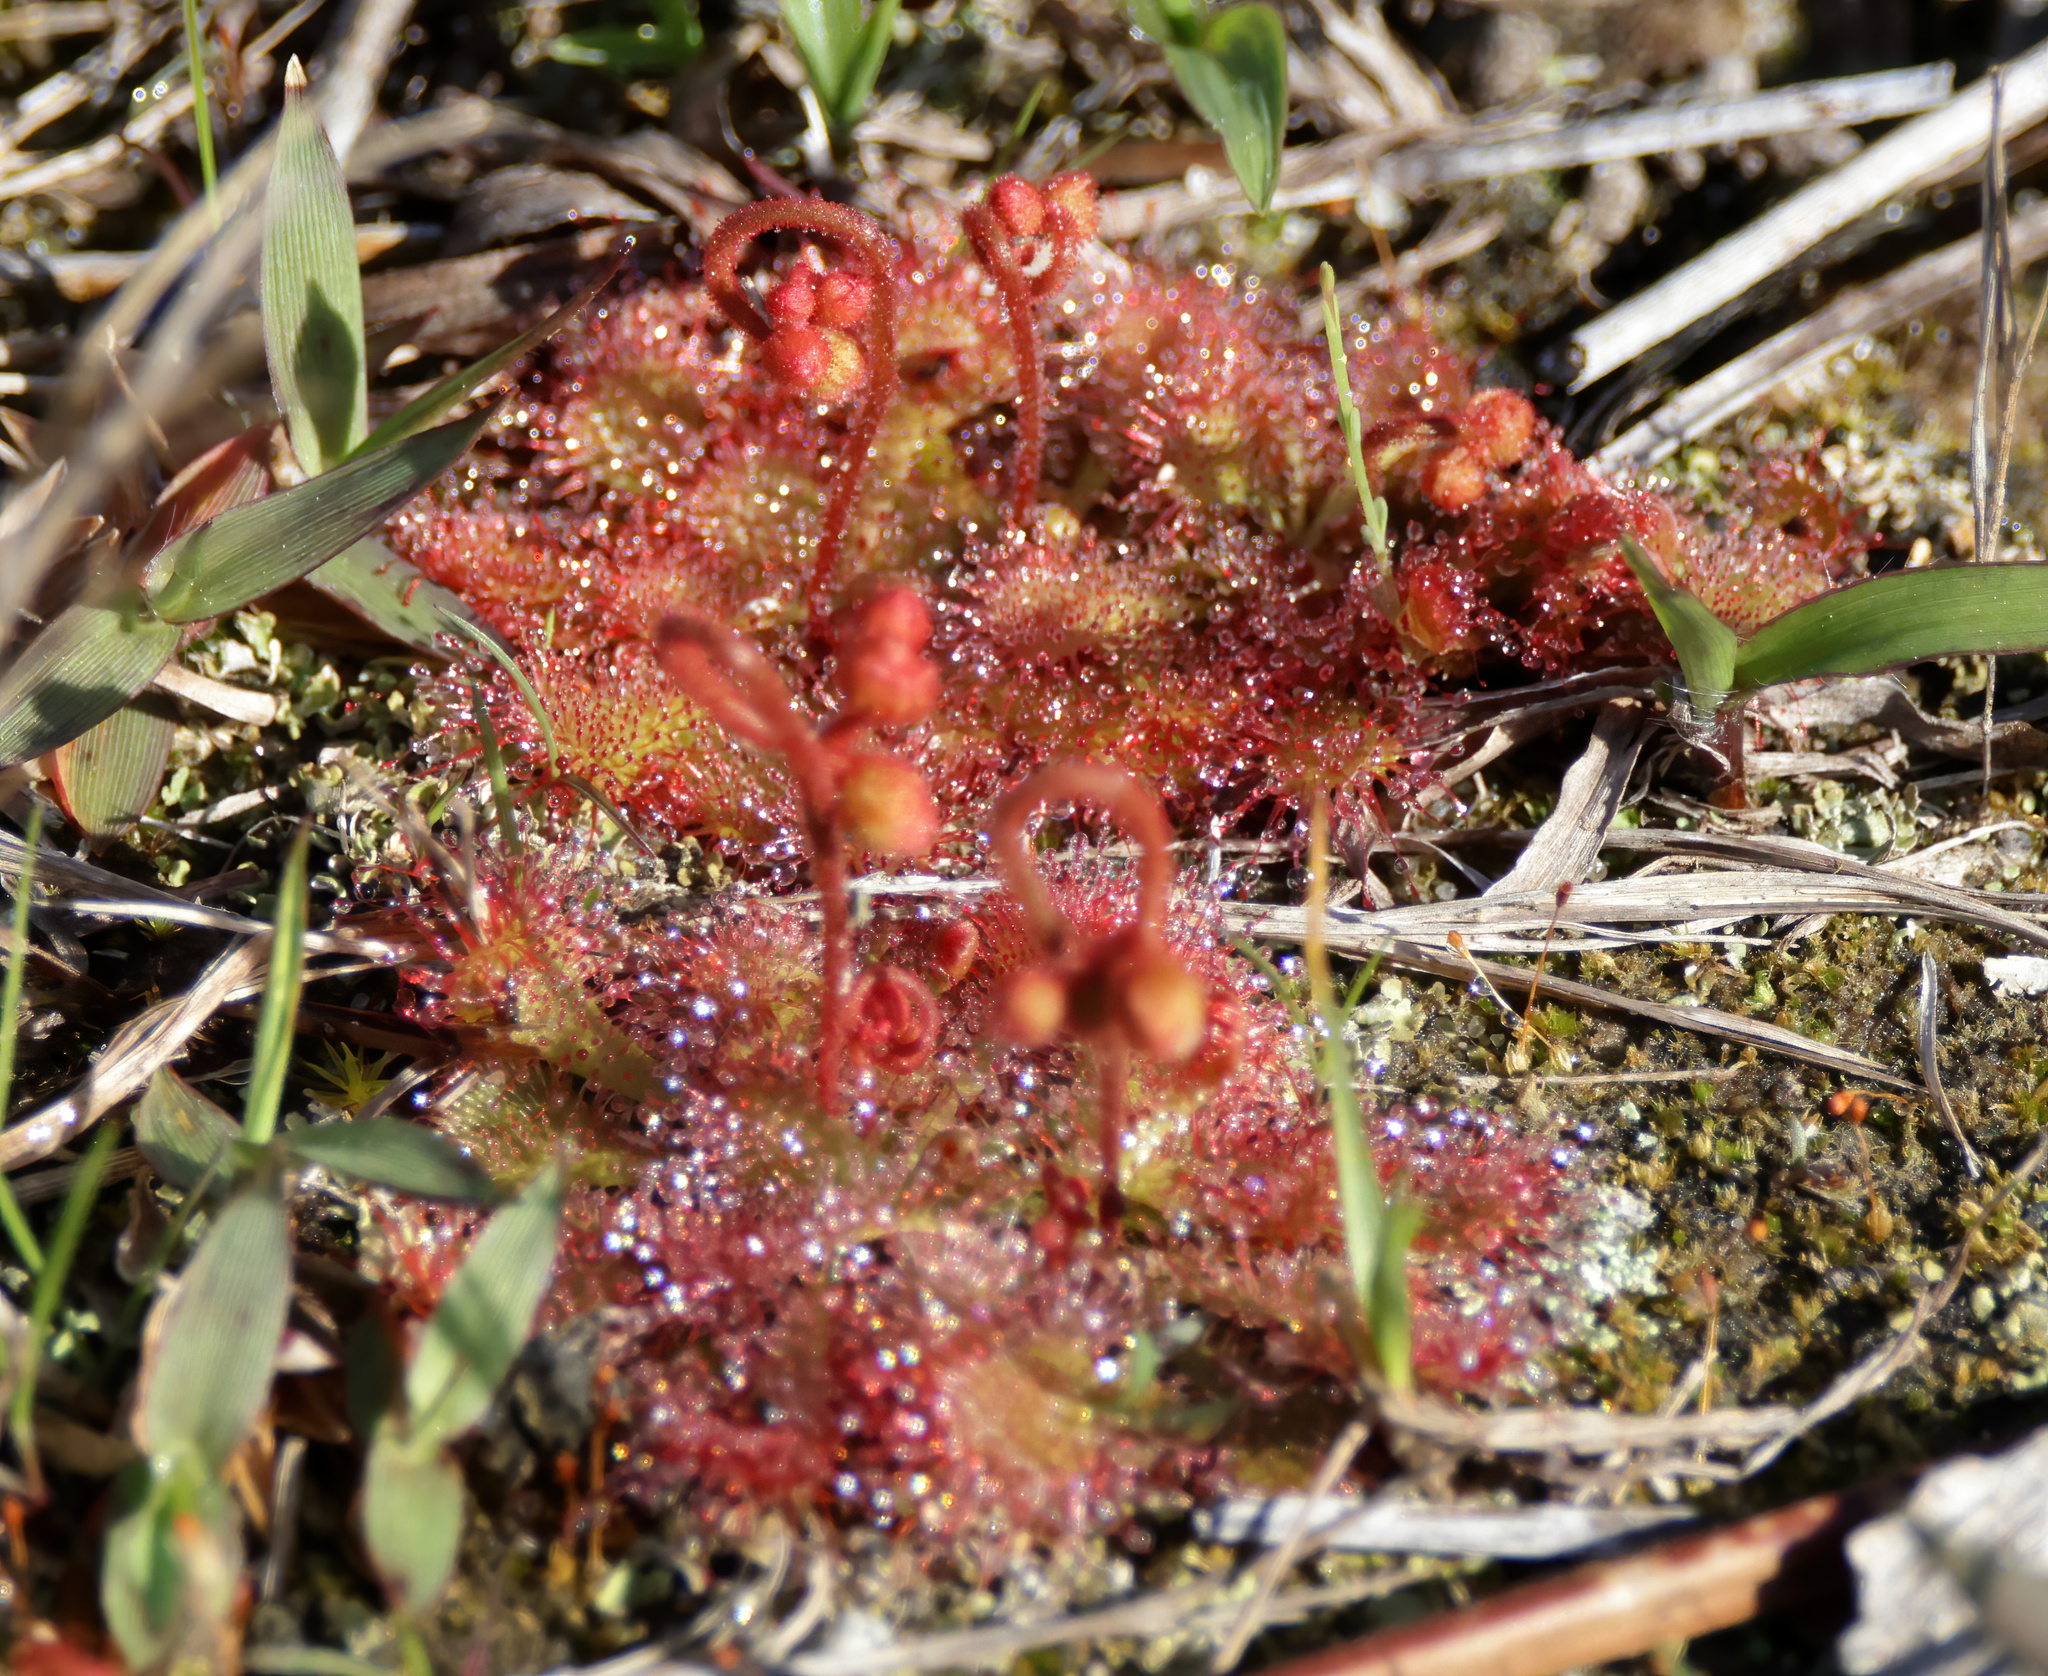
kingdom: Plantae
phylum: Tracheophyta
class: Magnoliopsida
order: Caryophyllales
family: Droseraceae
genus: Drosera
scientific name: Drosera brevifolia
